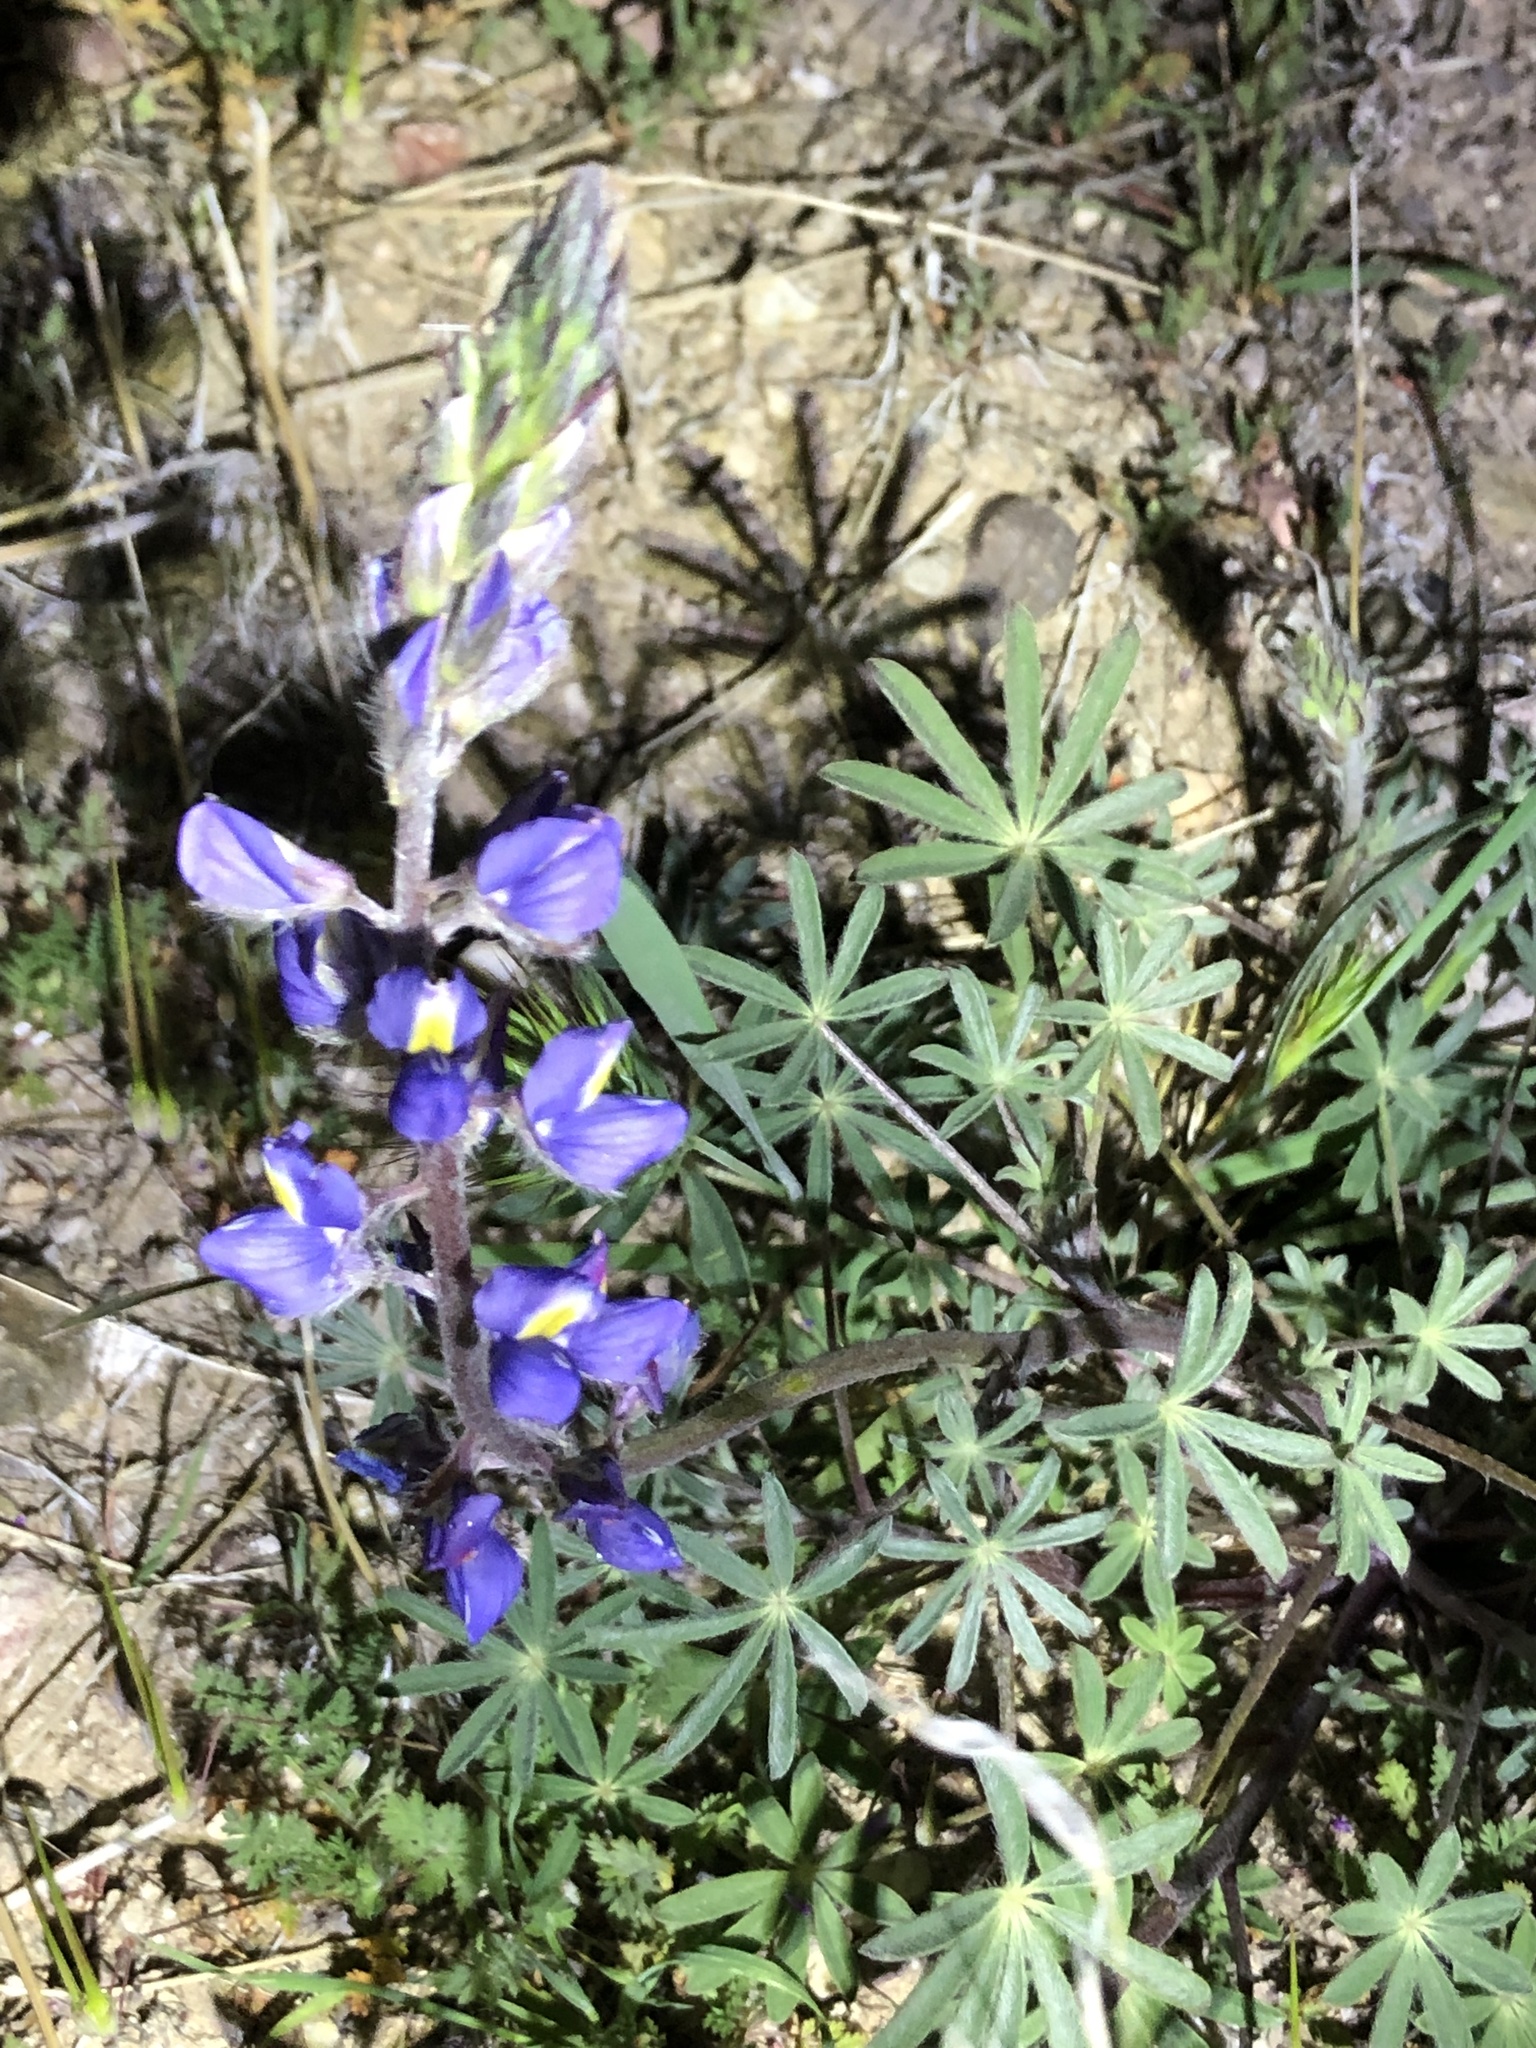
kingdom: Plantae
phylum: Tracheophyta
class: Magnoliopsida
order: Fabales
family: Fabaceae
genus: Lupinus
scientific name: Lupinus sparsiflorus
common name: Coulter's lupine
